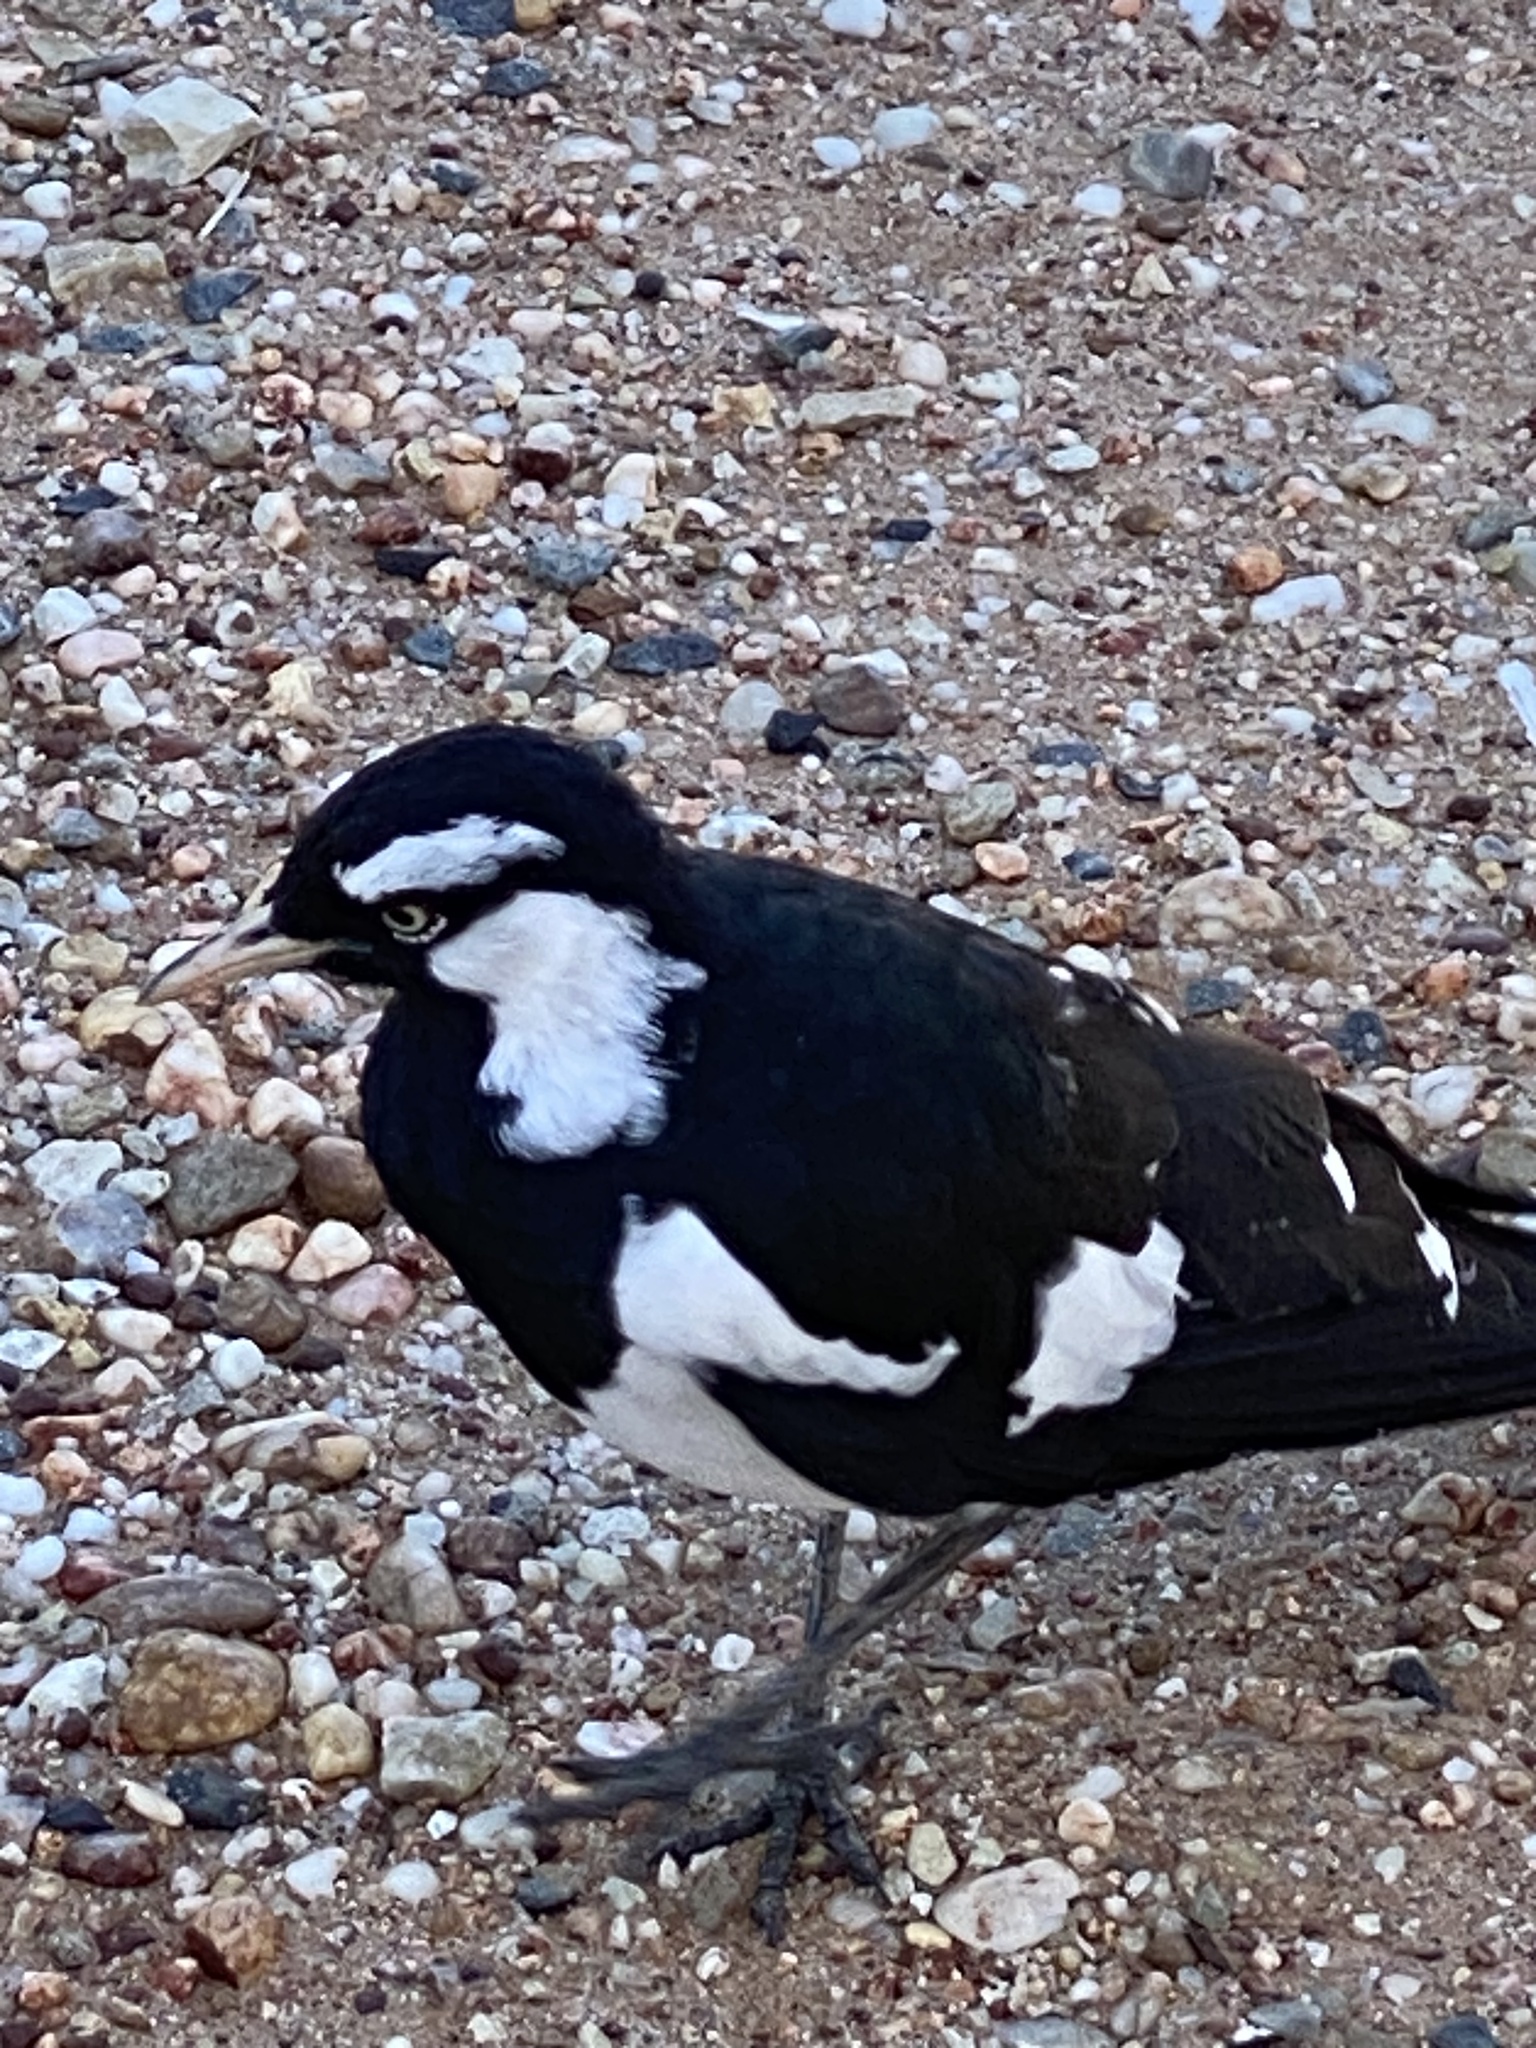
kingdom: Animalia
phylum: Chordata
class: Aves
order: Passeriformes
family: Monarchidae
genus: Grallina
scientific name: Grallina cyanoleuca
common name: Magpie-lark
